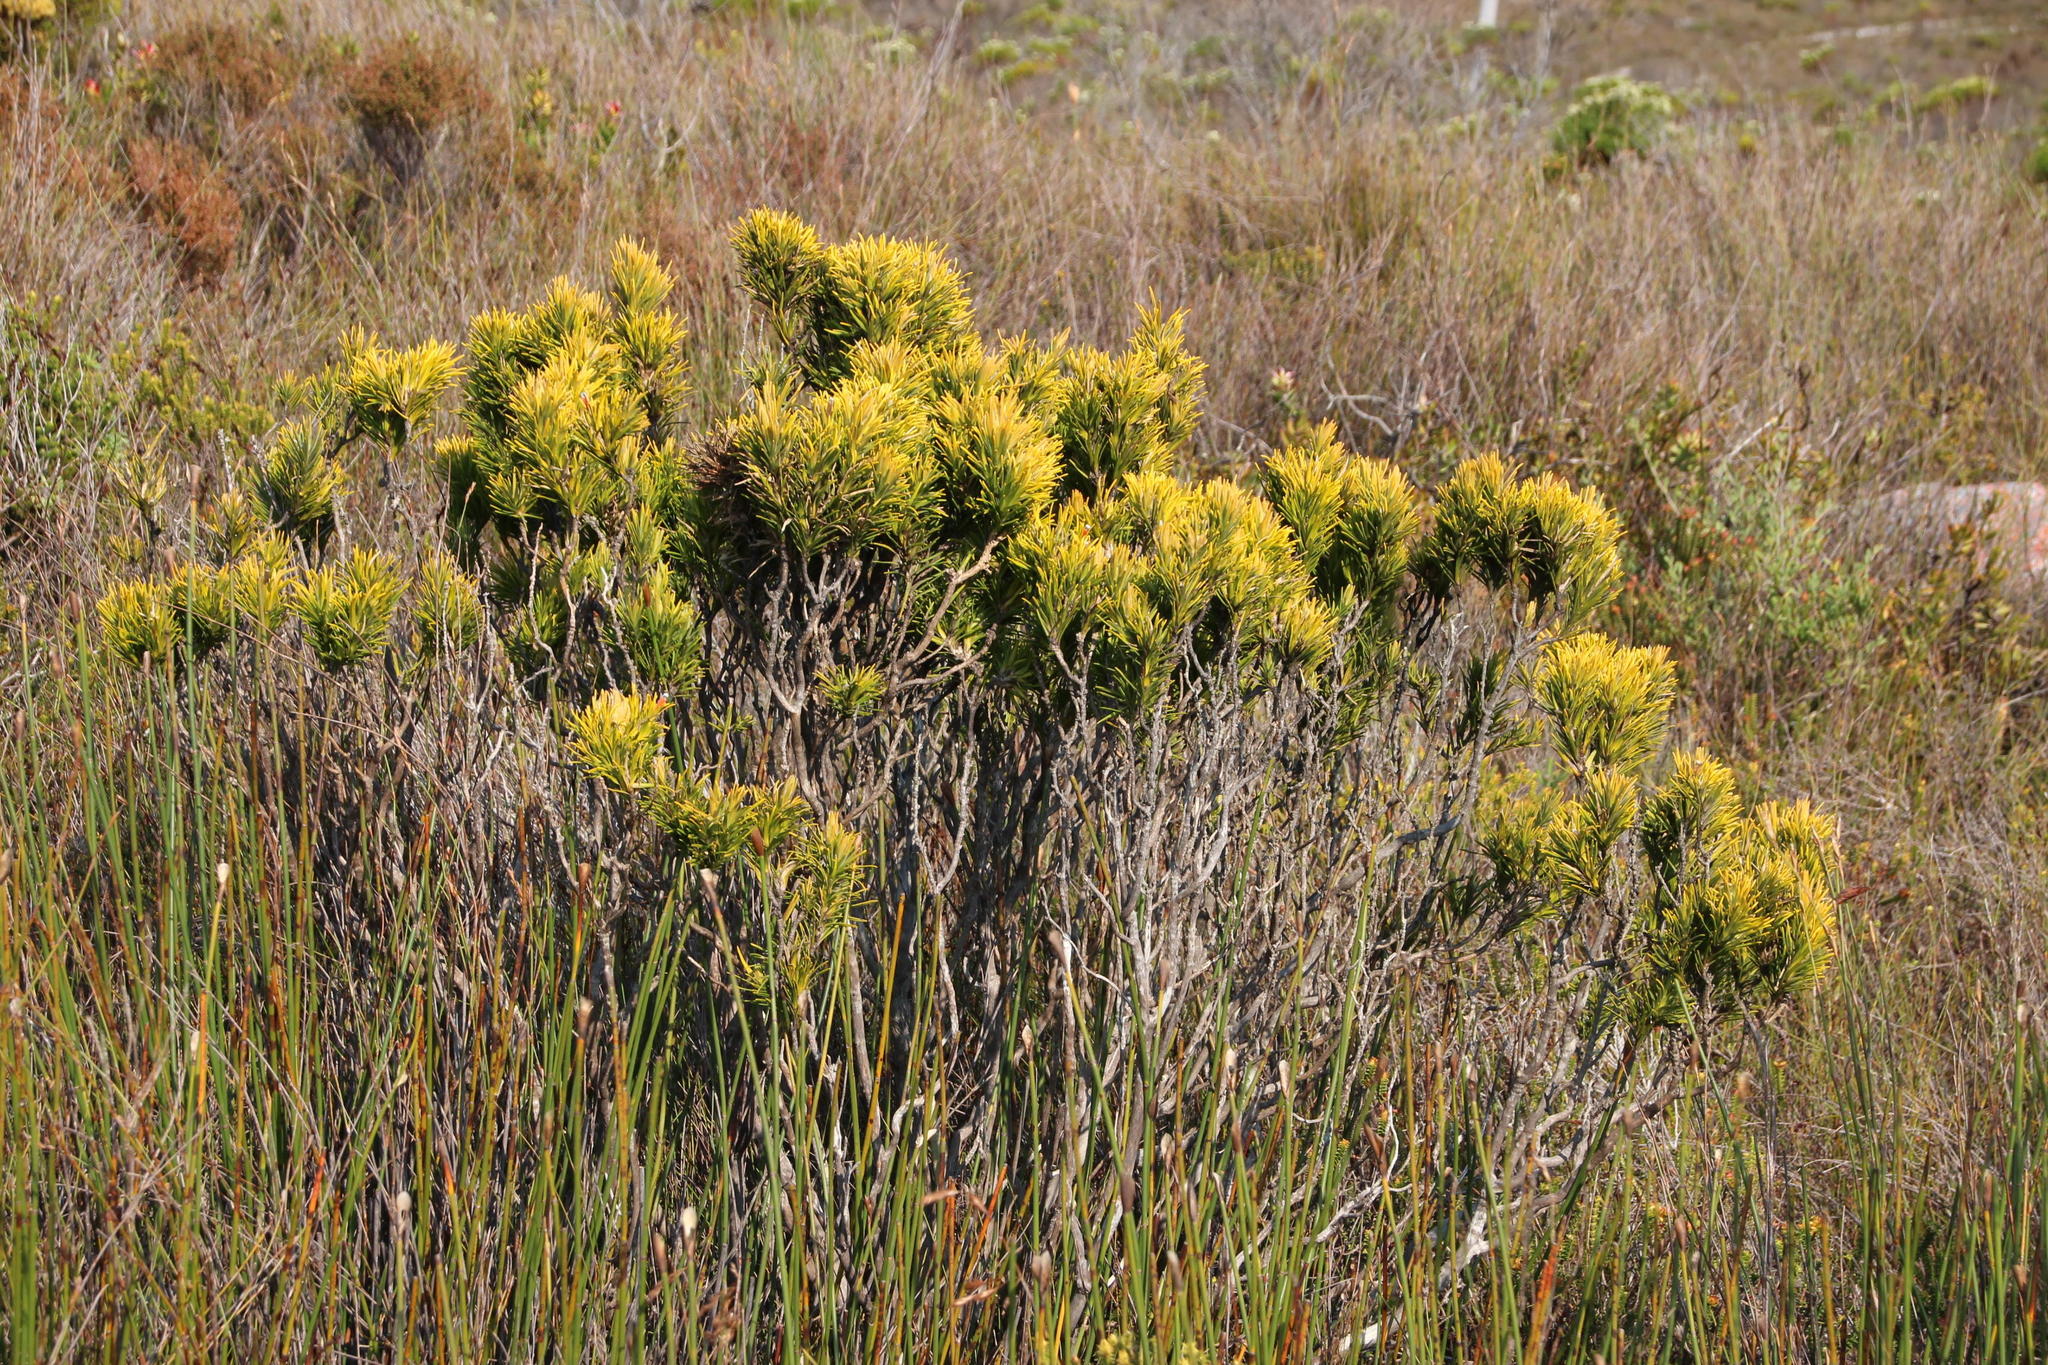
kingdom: Plantae
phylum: Tracheophyta
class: Magnoliopsida
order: Lamiales
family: Stilbaceae
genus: Retzia
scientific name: Retzia capensis
